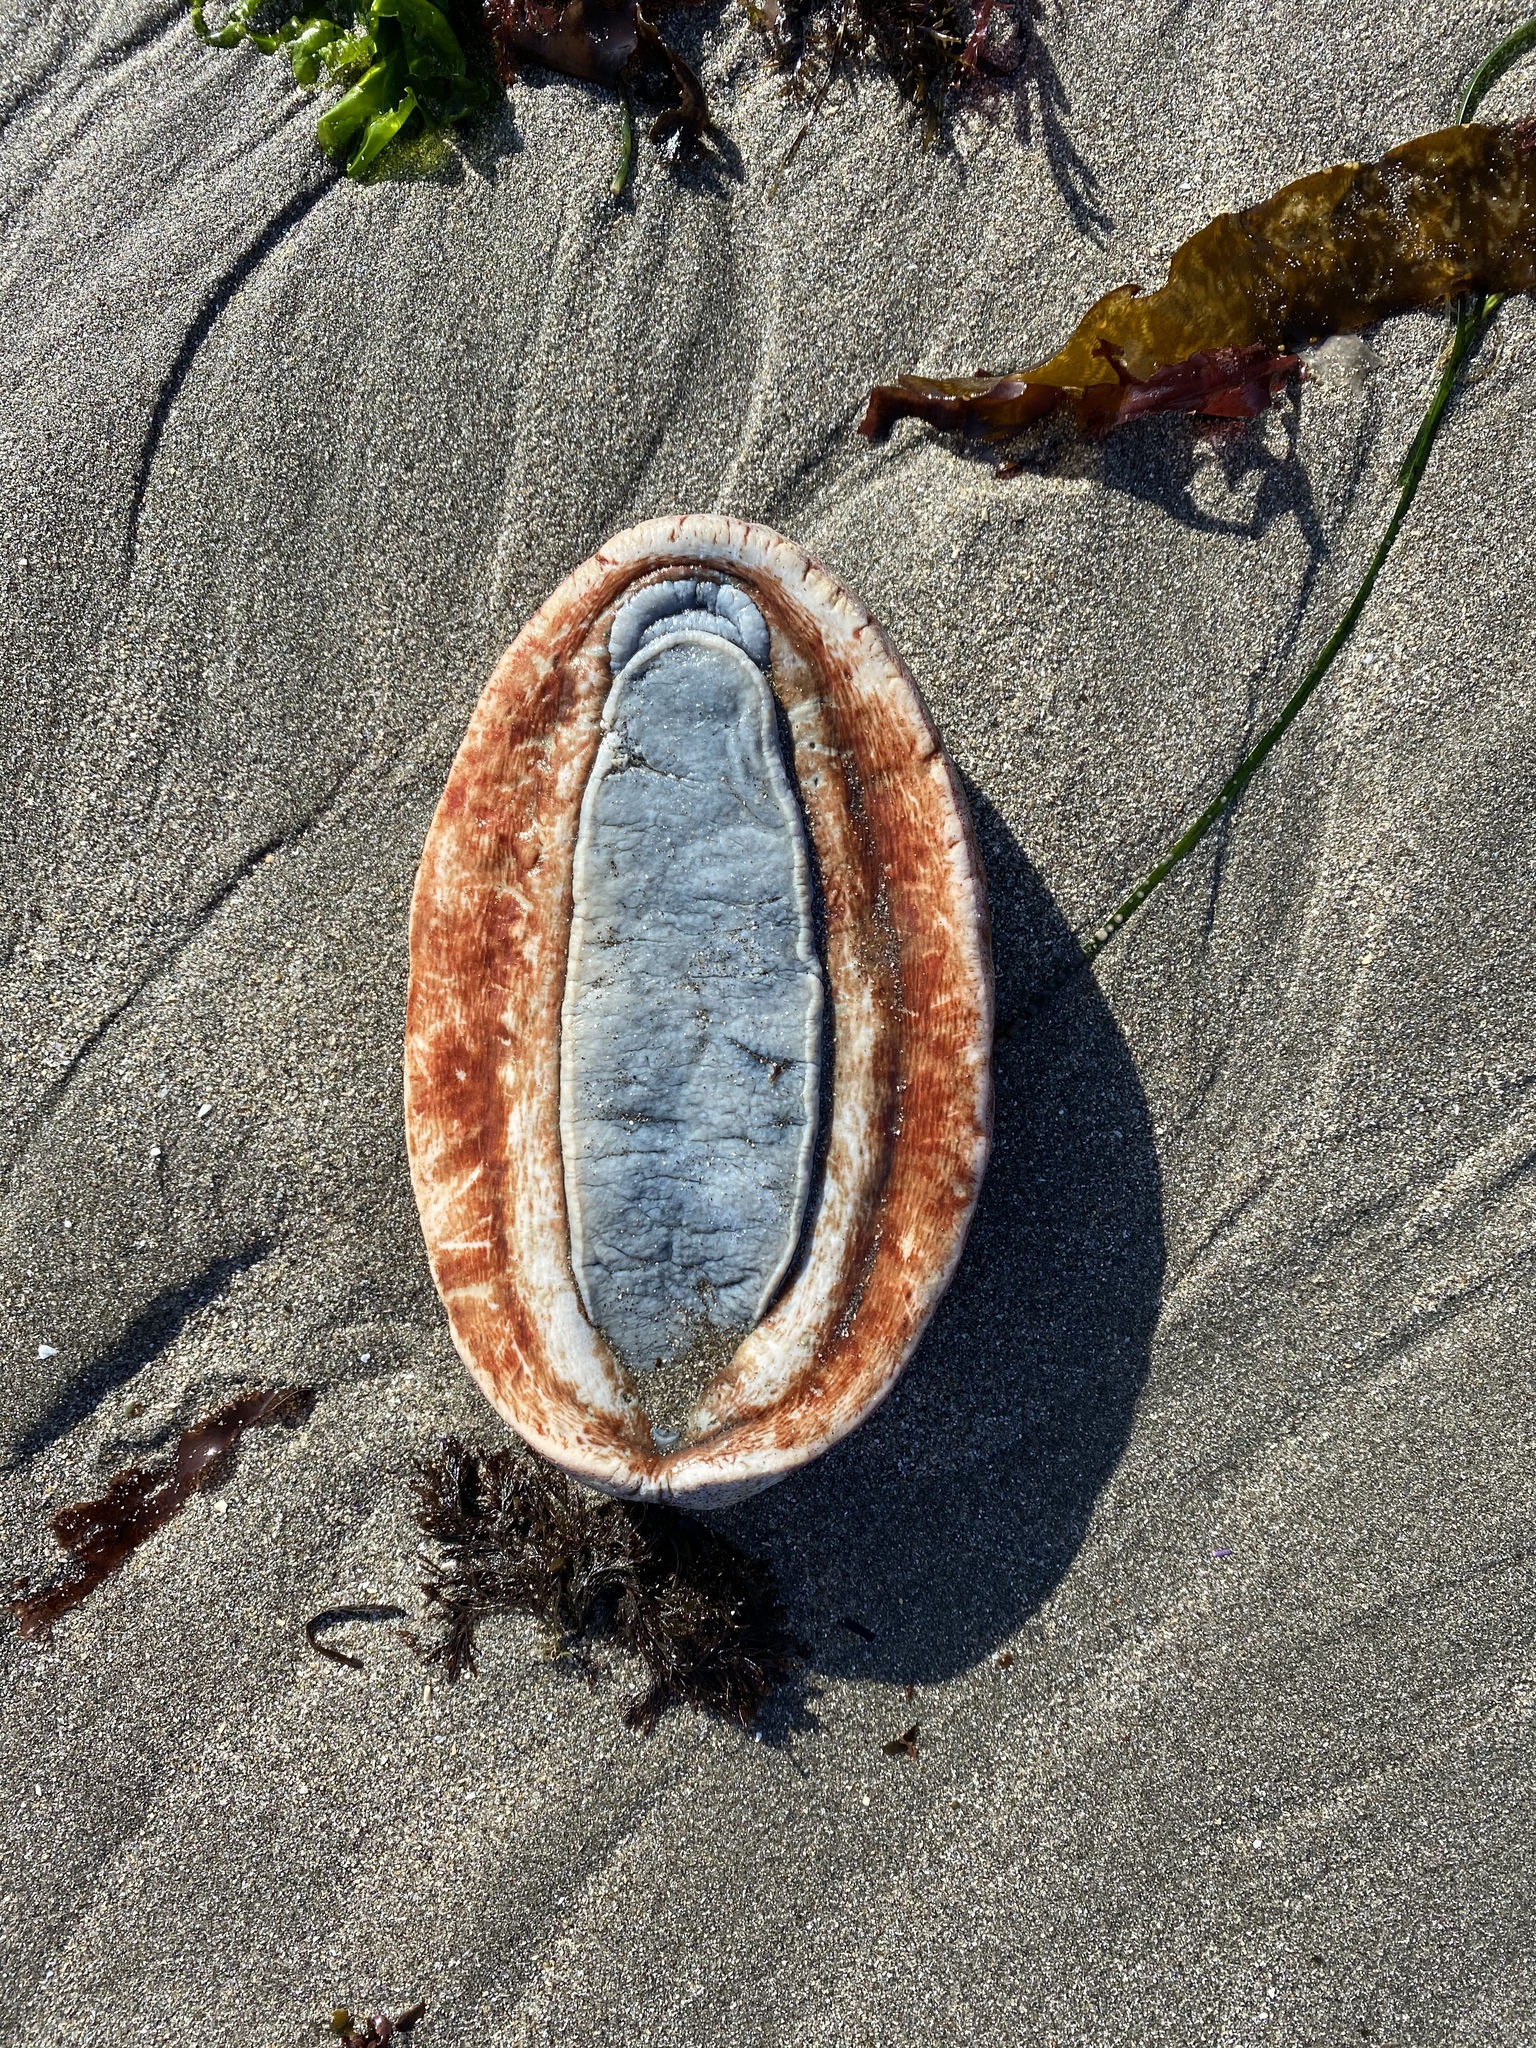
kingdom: Animalia
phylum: Mollusca
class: Polyplacophora
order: Chitonida
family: Acanthochitonidae
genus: Cryptochiton
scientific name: Cryptochiton stelleri
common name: Giant pacific chiton
